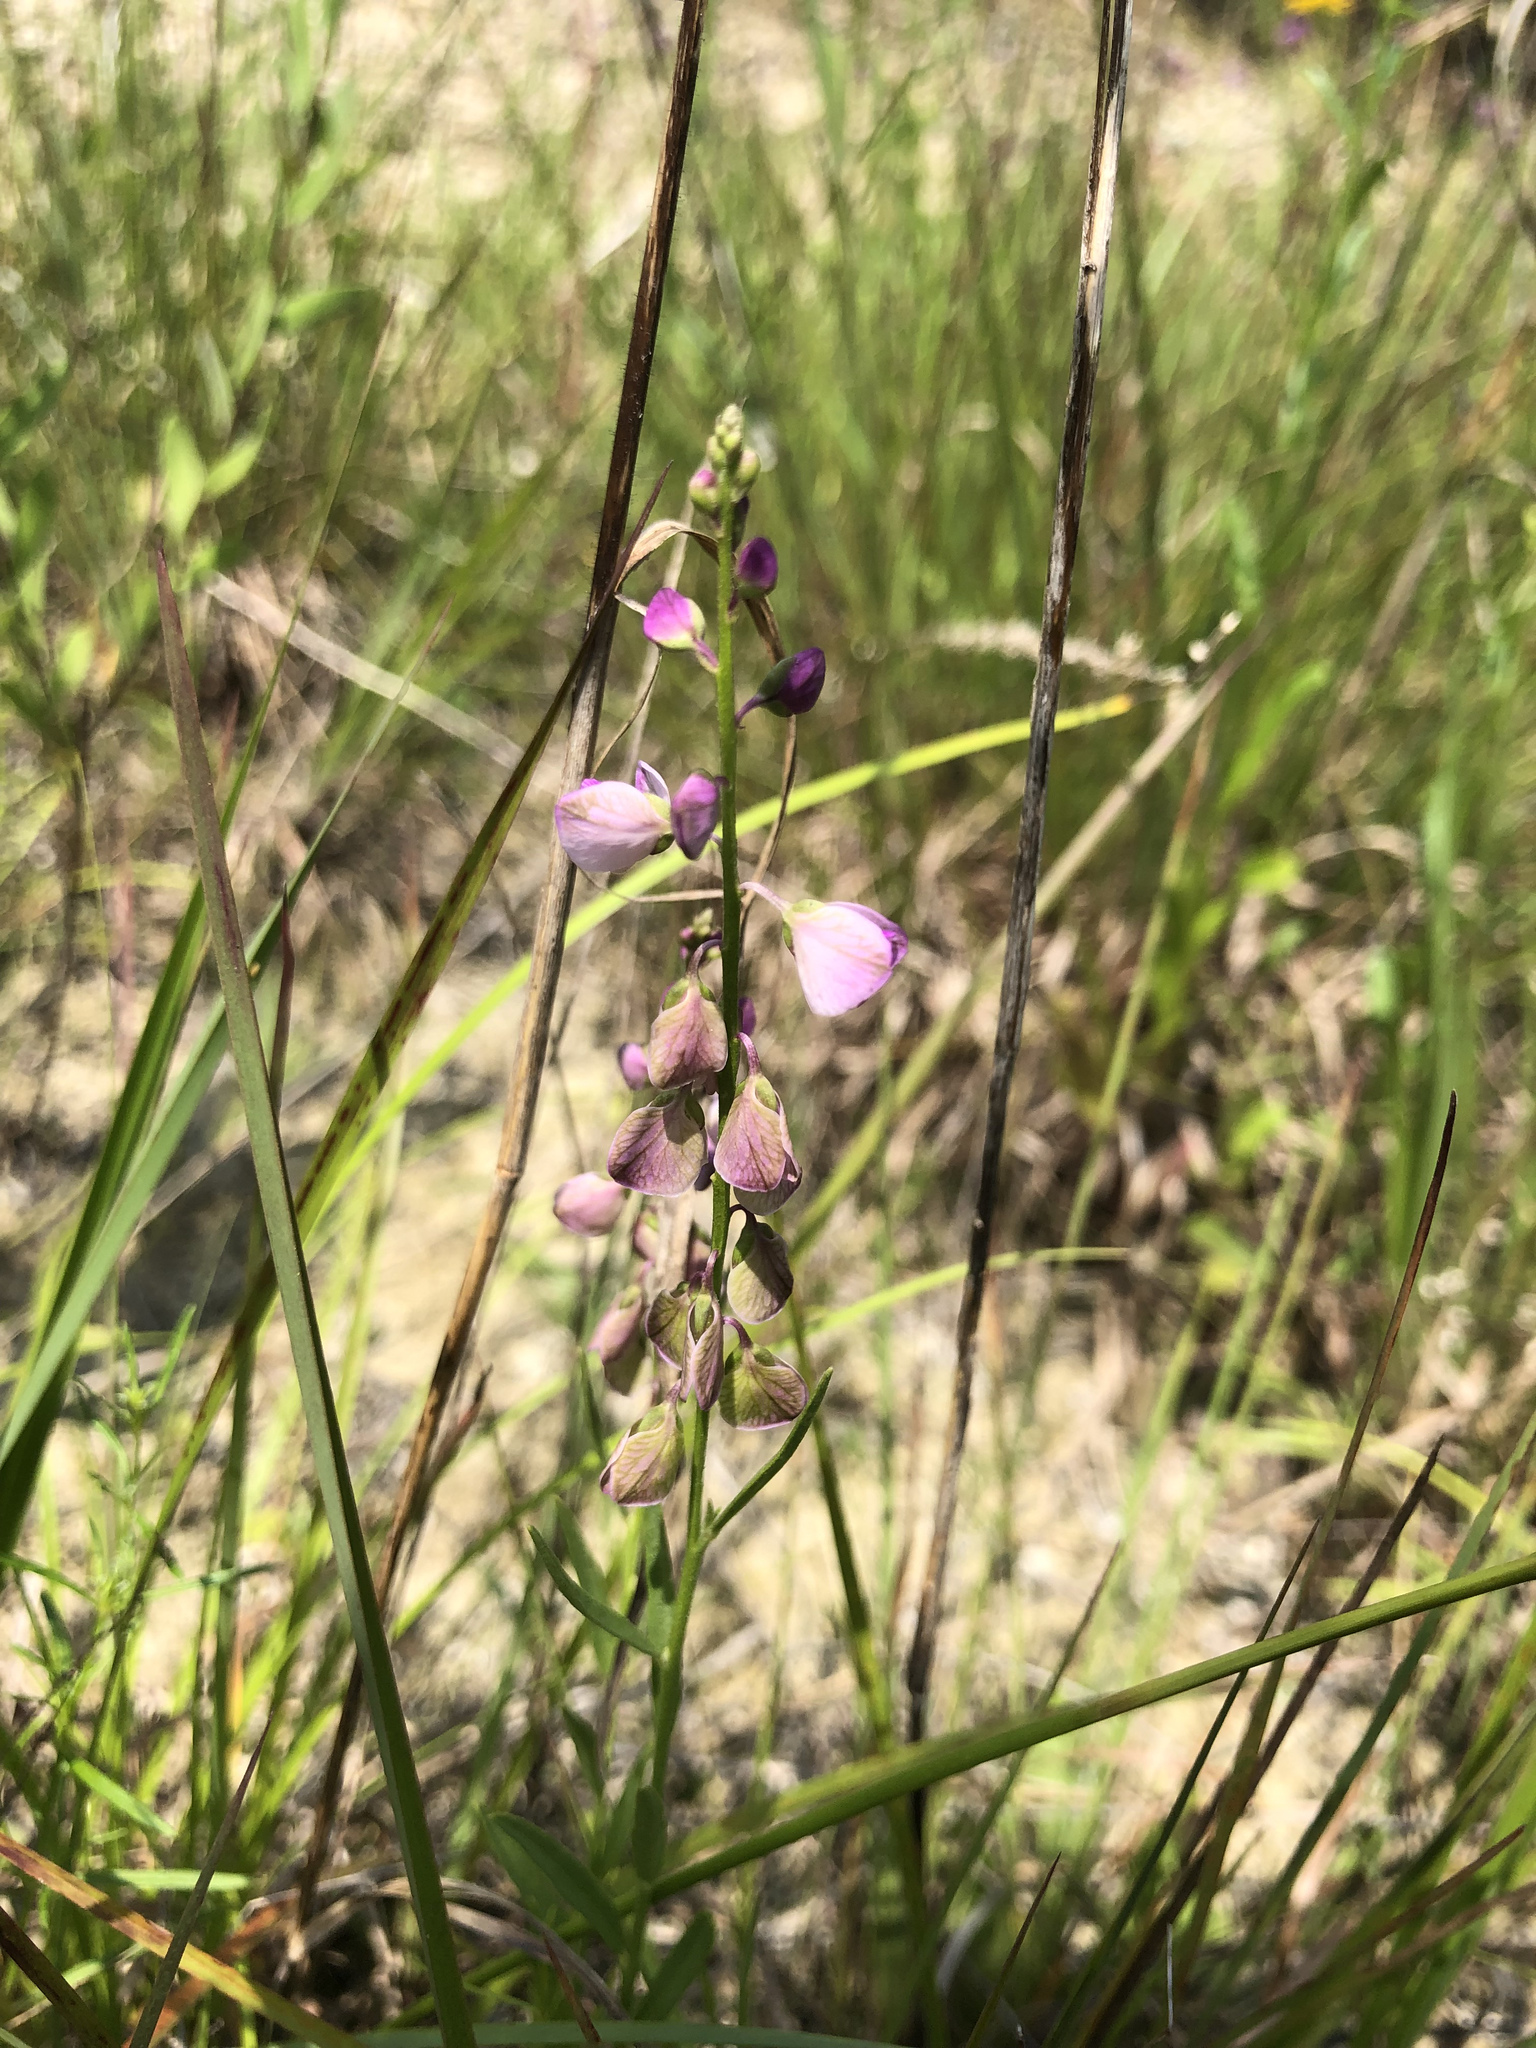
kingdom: Plantae
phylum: Tracheophyta
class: Magnoliopsida
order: Fabales
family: Polygalaceae
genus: Asemeia
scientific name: Asemeia grandiflora
